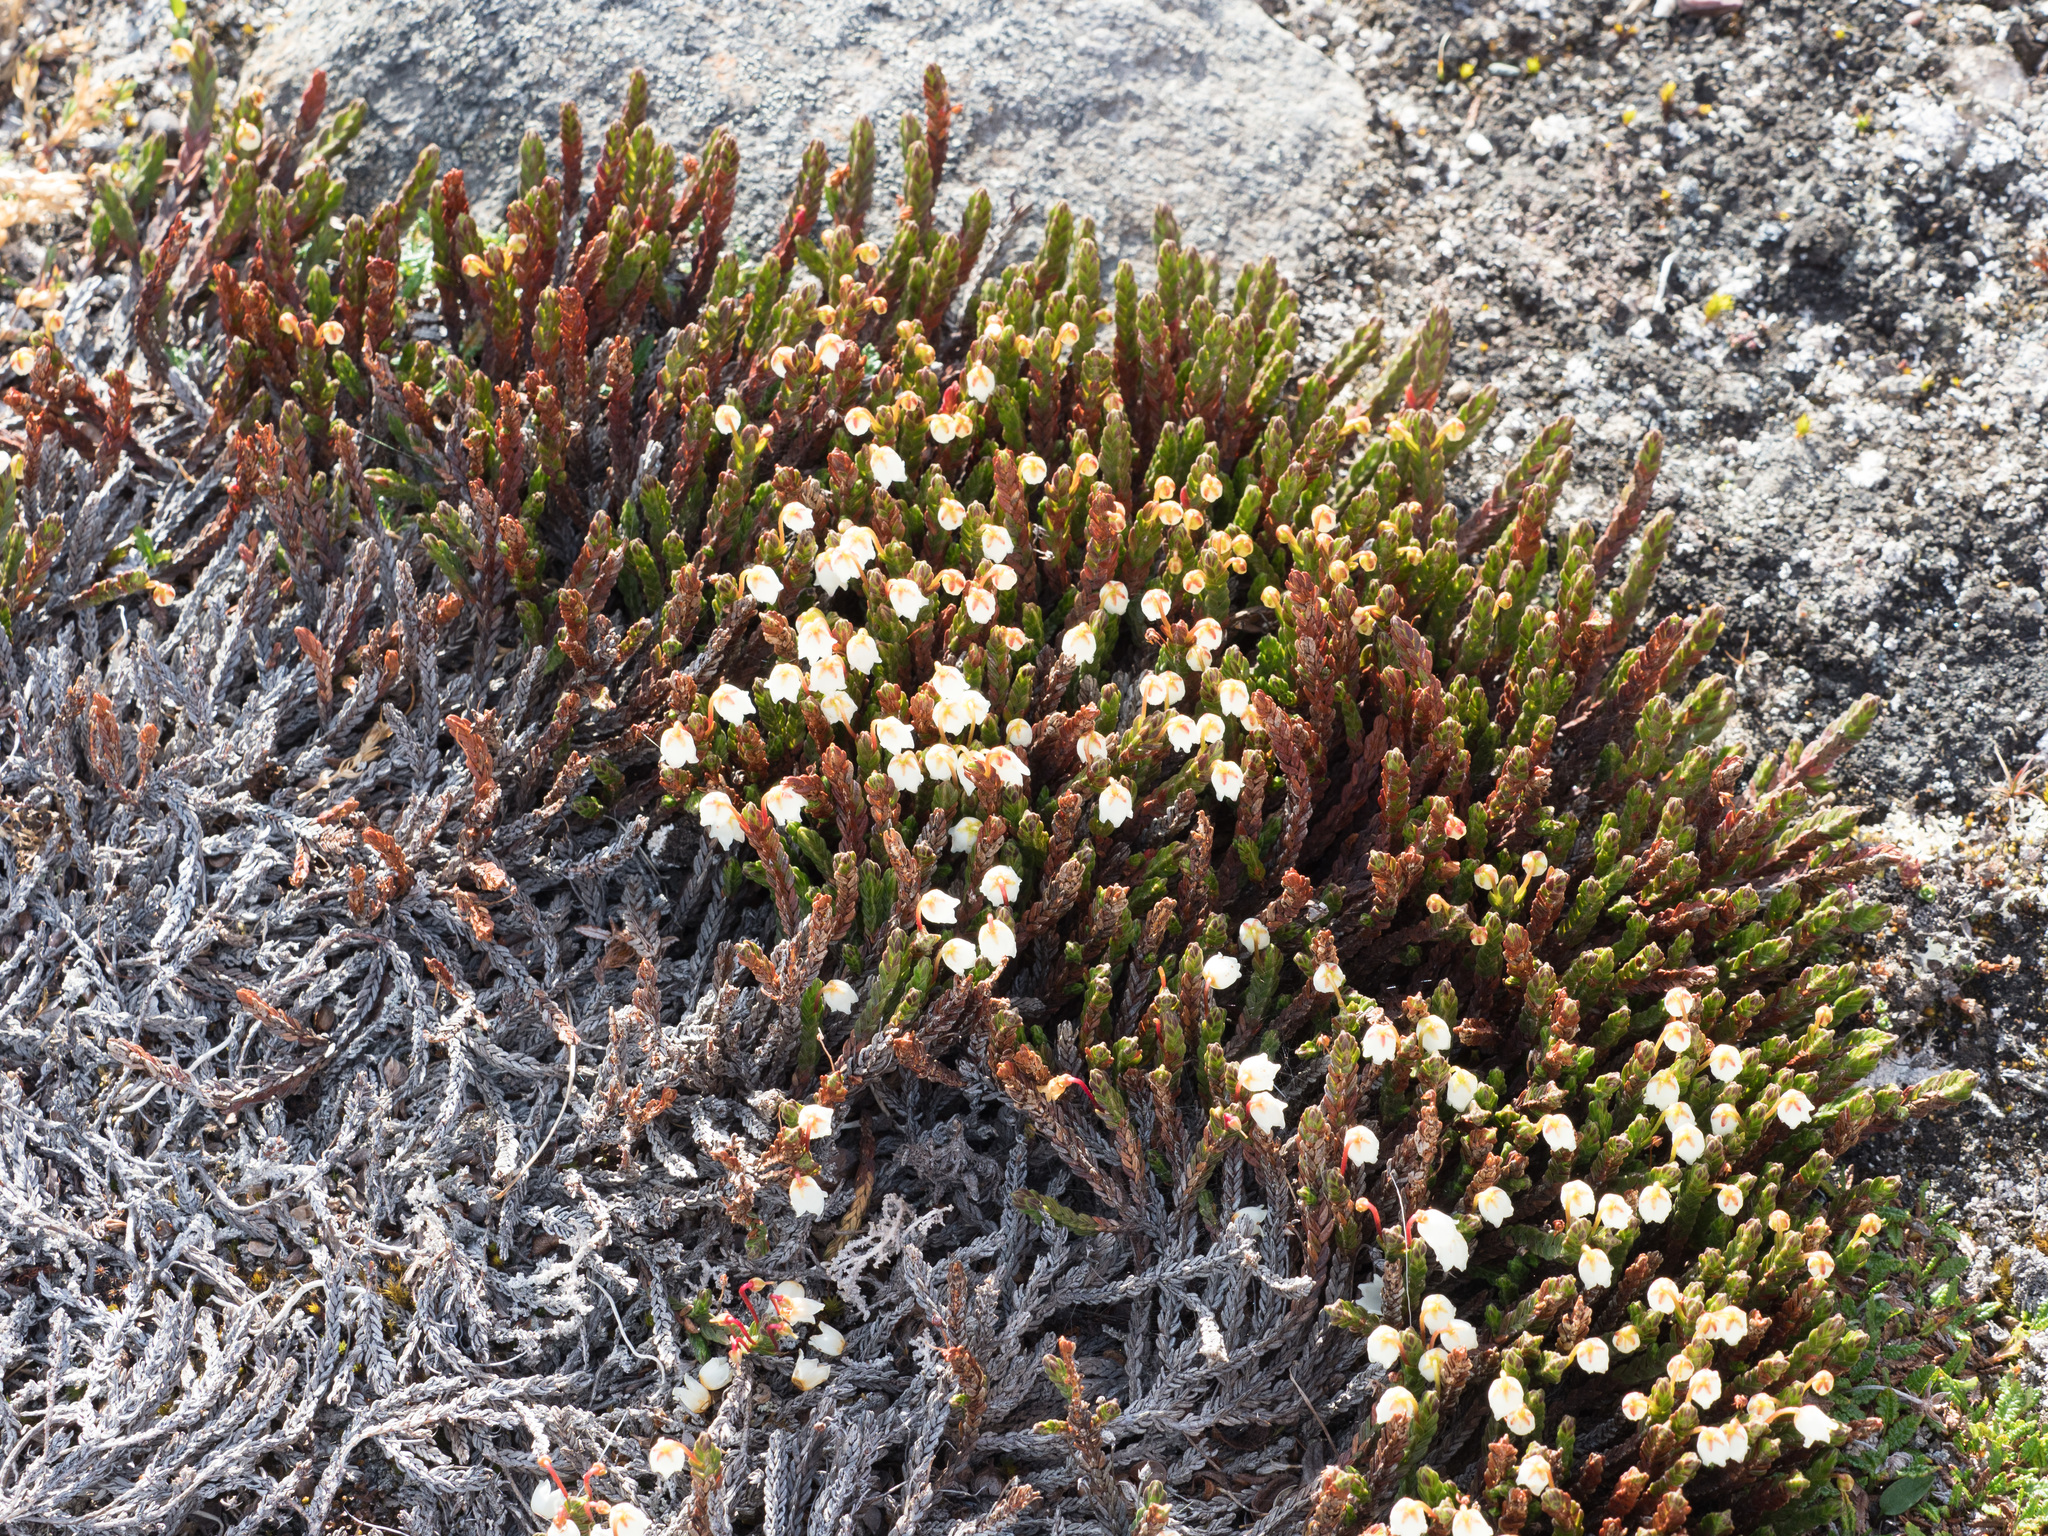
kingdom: Plantae
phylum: Tracheophyta
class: Magnoliopsida
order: Ericales
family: Ericaceae
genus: Cassiope
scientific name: Cassiope tetragona
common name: Arctic bell heather
